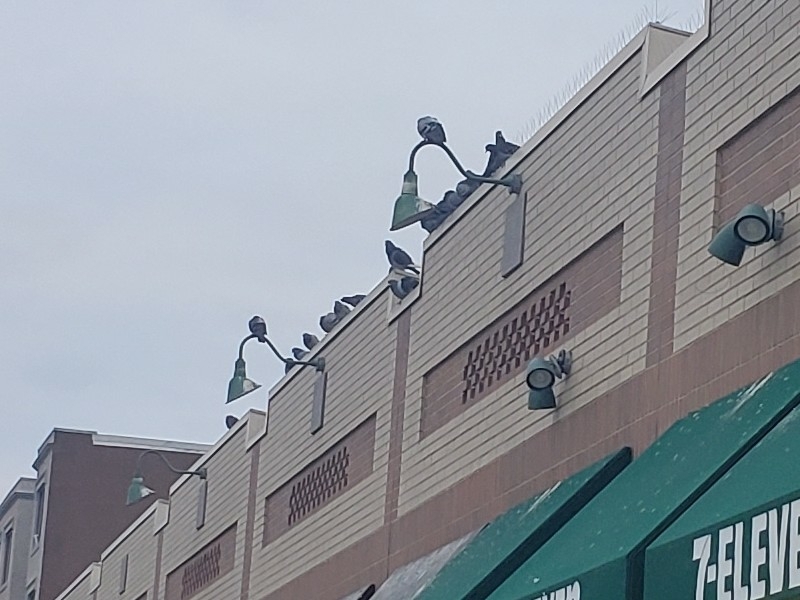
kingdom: Animalia
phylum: Chordata
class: Aves
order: Columbiformes
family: Columbidae
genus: Columba
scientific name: Columba livia
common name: Rock pigeon
